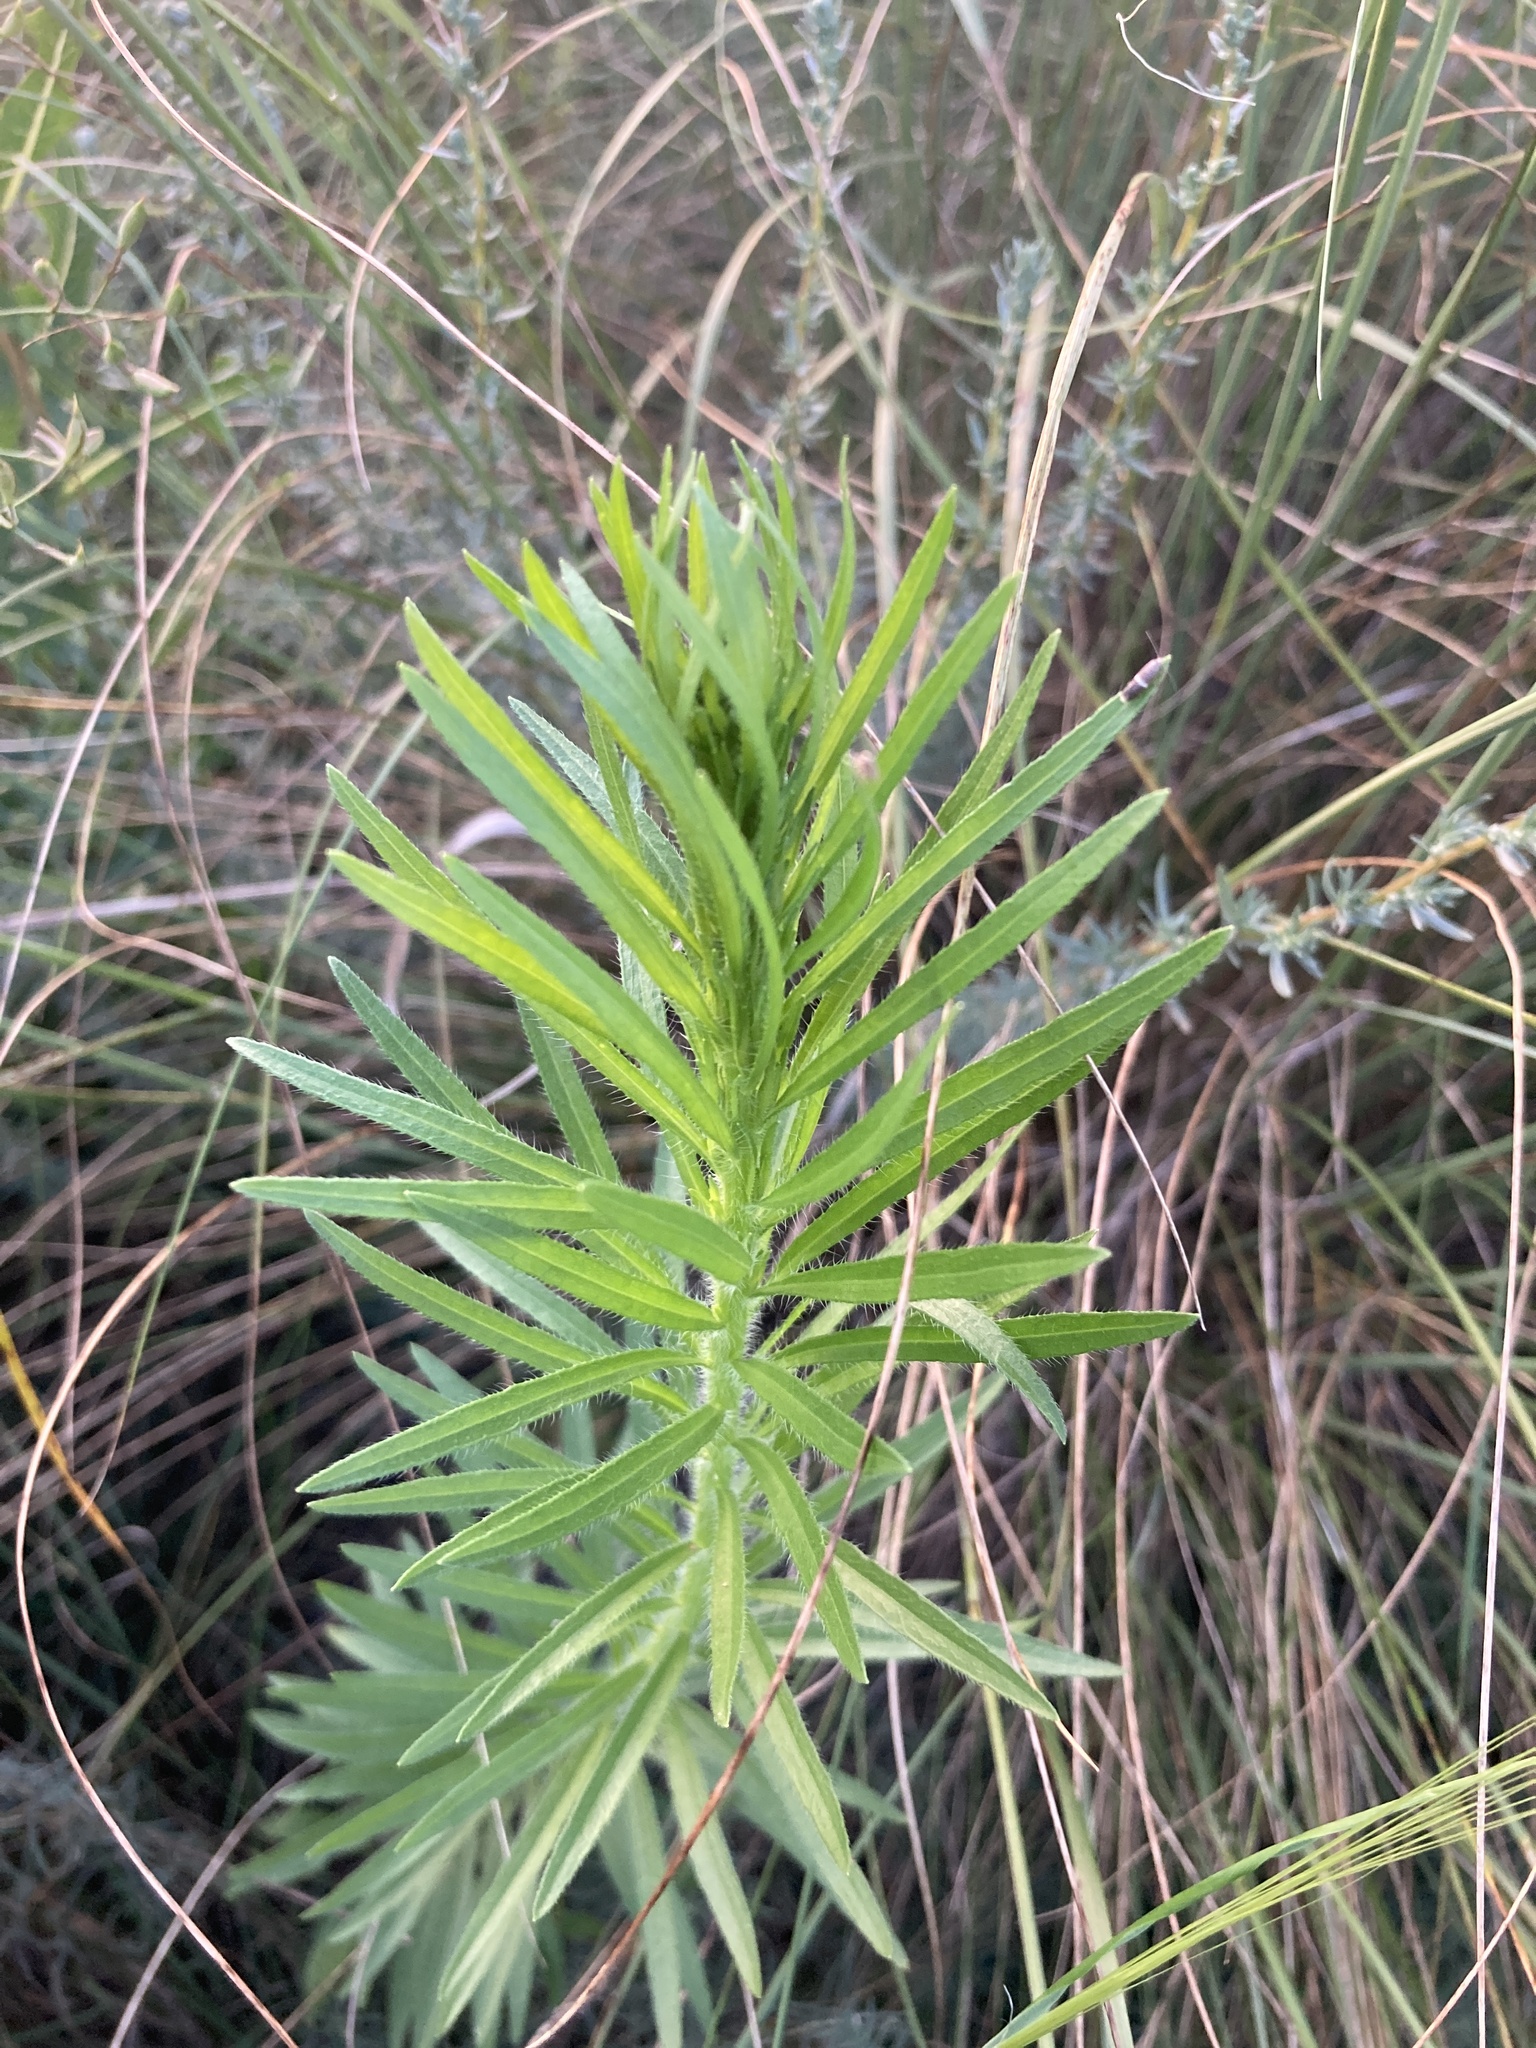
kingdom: Plantae
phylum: Tracheophyta
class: Magnoliopsida
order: Asterales
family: Asteraceae
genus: Erigeron
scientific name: Erigeron canadensis
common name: Canadian fleabane
